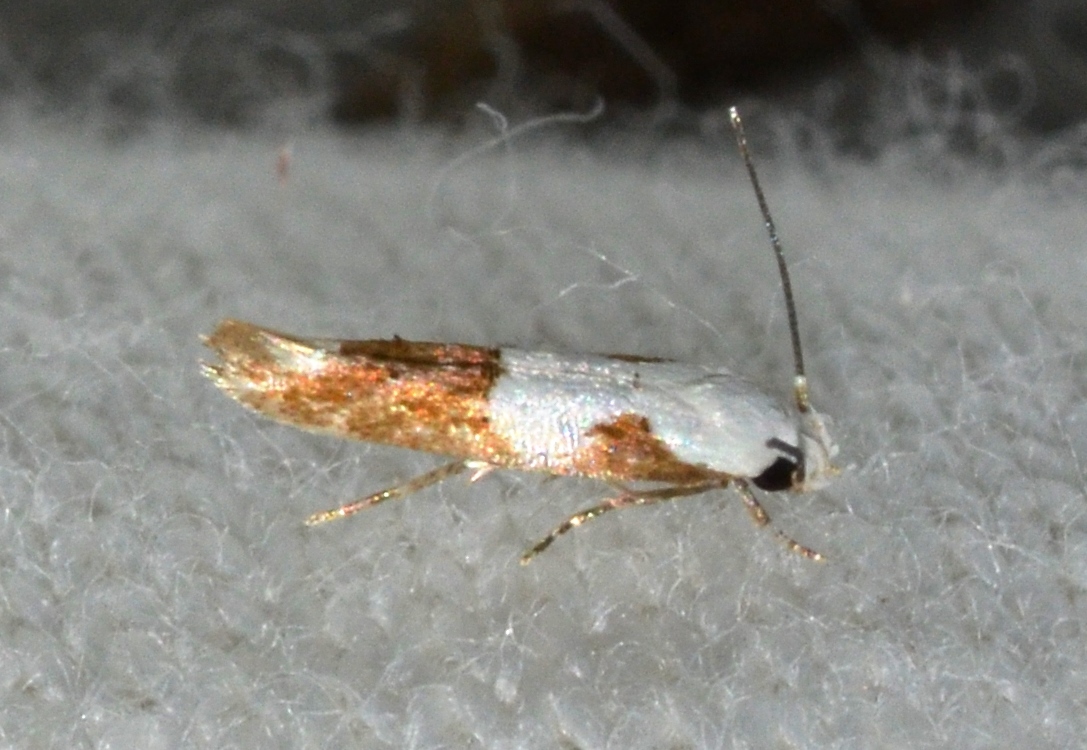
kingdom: Animalia
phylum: Arthropoda
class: Insecta
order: Lepidoptera
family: Momphidae
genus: Mompha
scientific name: Mompha circumscriptella
